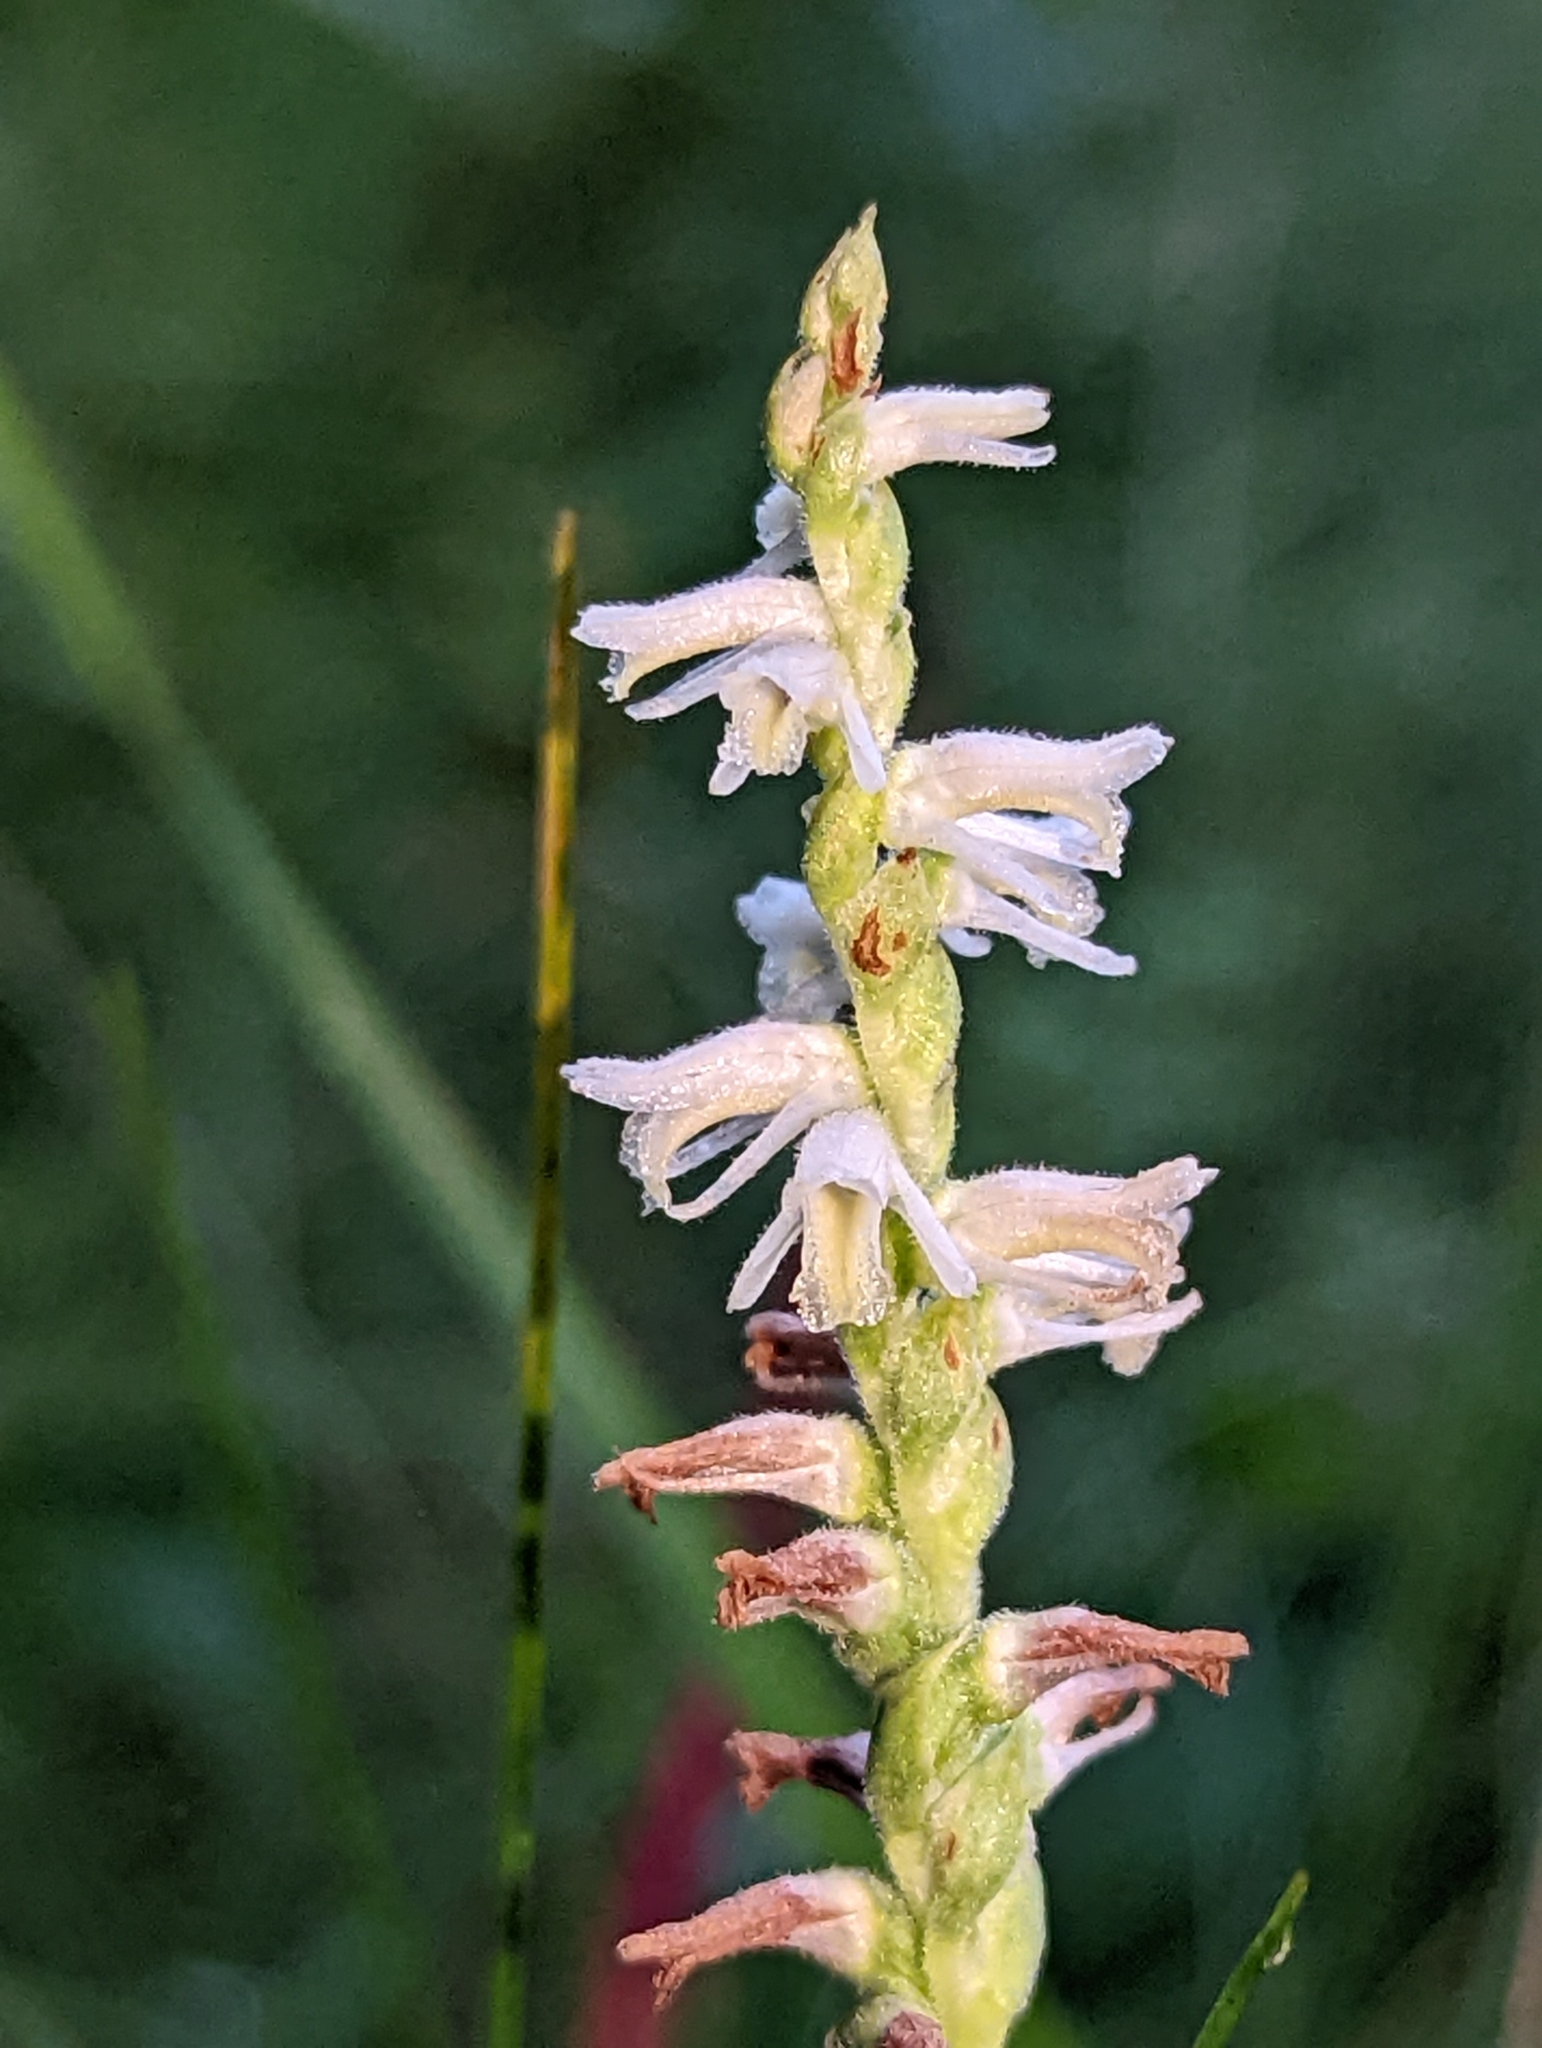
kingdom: Plantae
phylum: Tracheophyta
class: Liliopsida
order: Asparagales
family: Orchidaceae
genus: Spiranthes
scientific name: Spiranthes vernalis
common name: Spring ladies'-tresses
